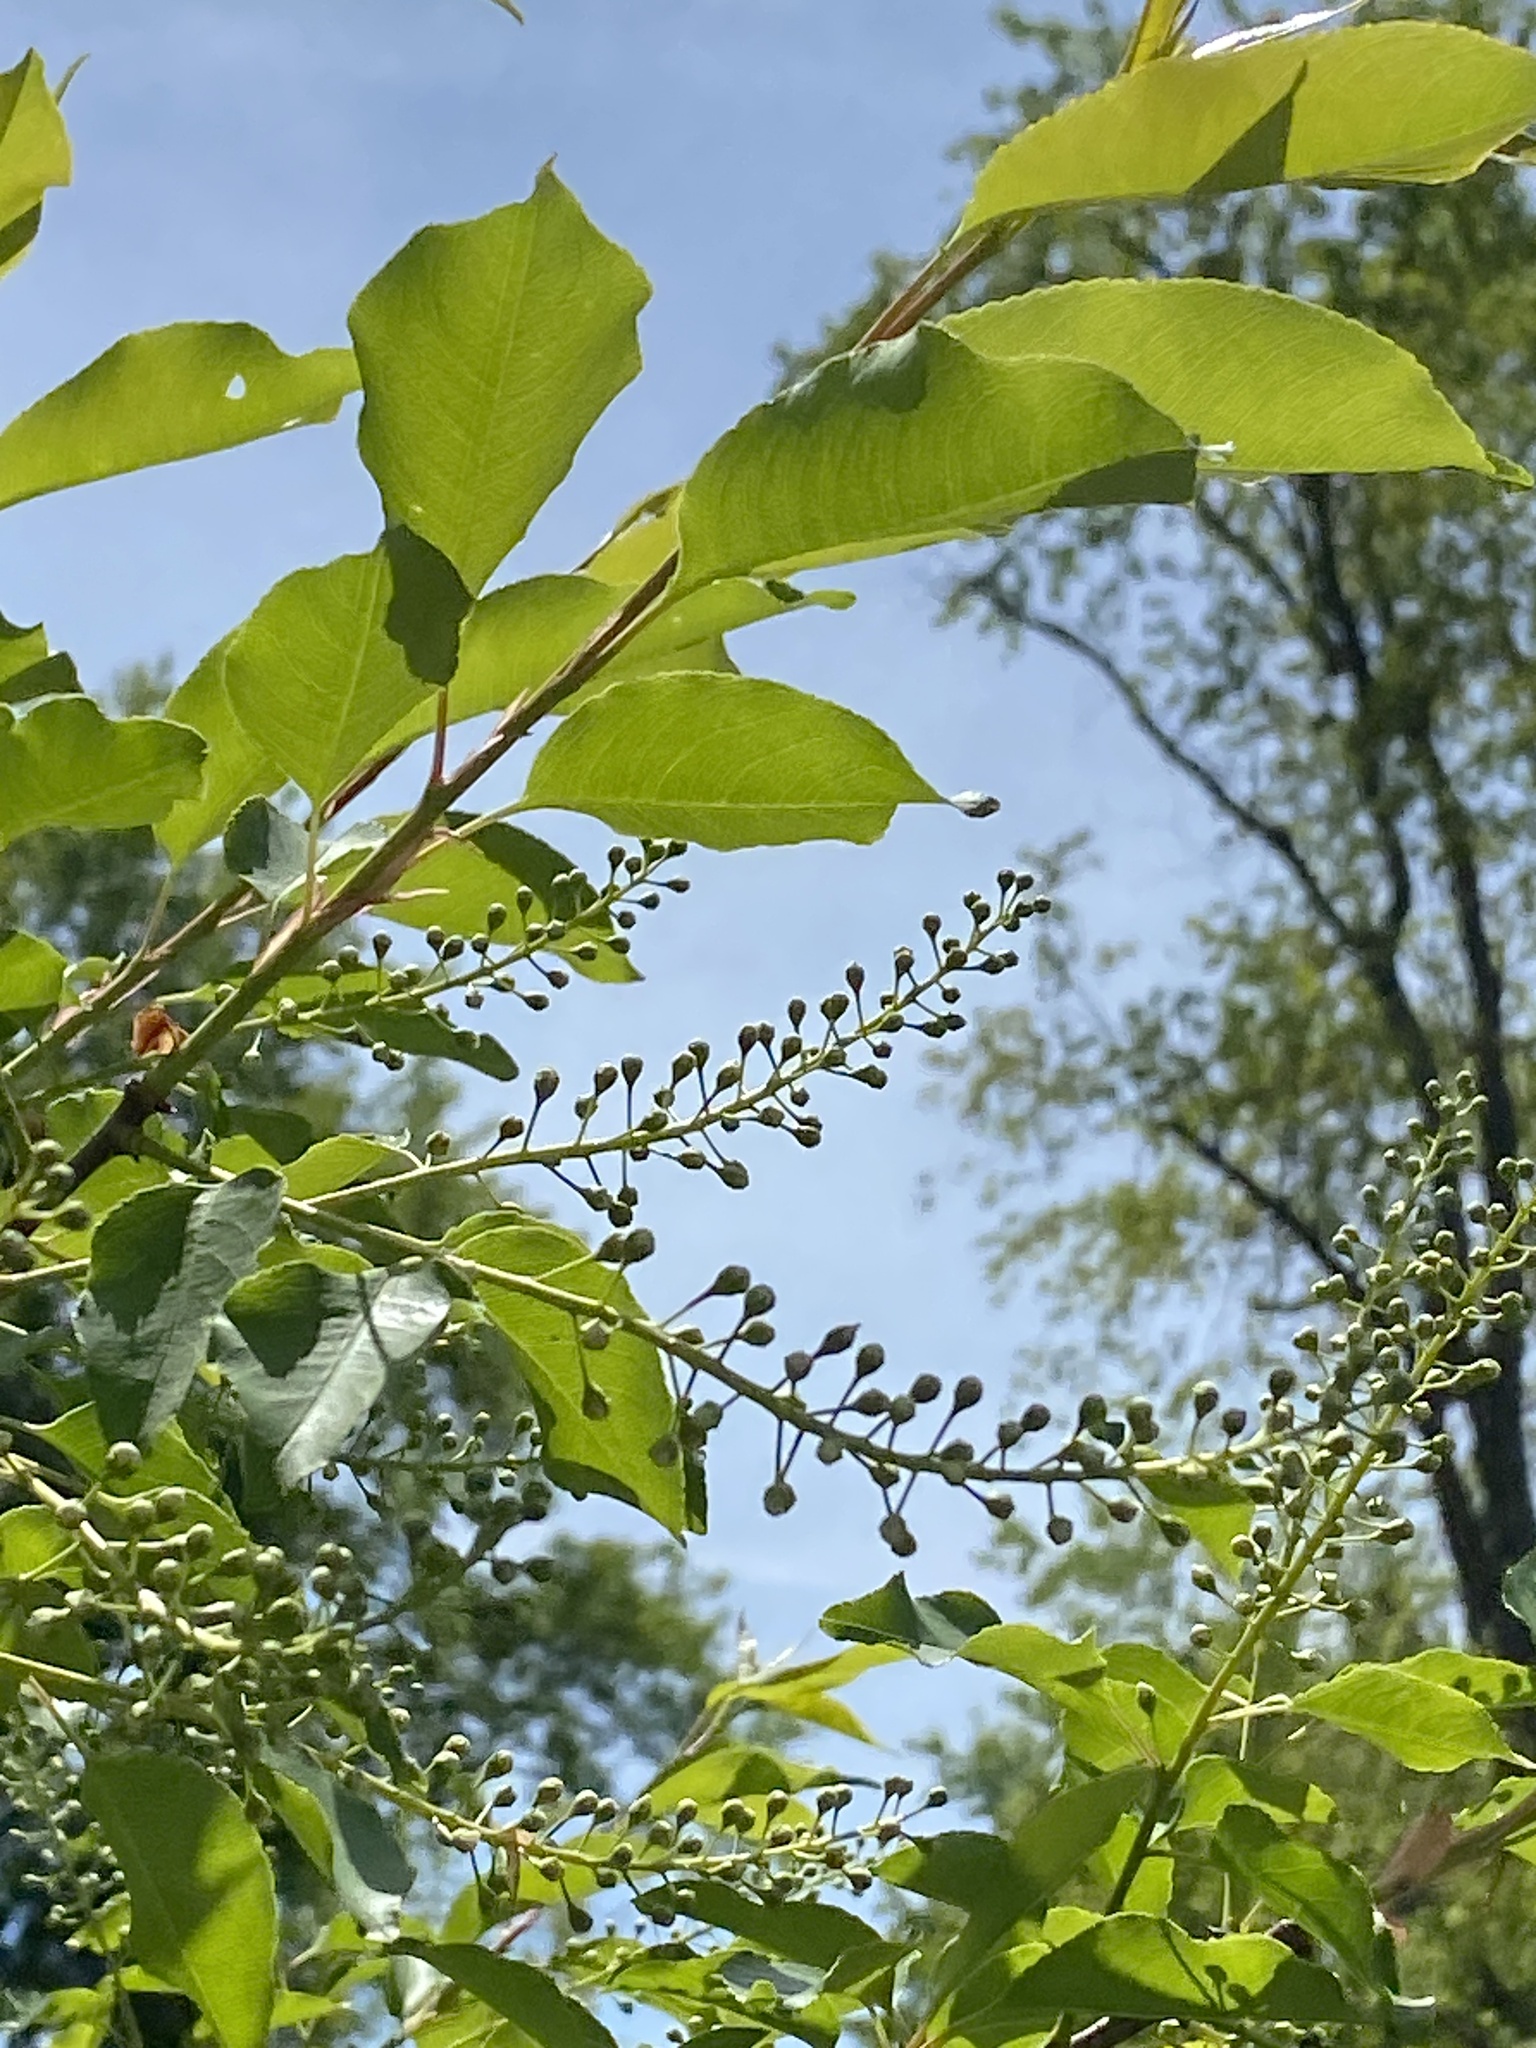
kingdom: Plantae
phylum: Tracheophyta
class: Magnoliopsida
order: Rosales
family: Rosaceae
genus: Prunus
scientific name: Prunus serotina
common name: Black cherry
